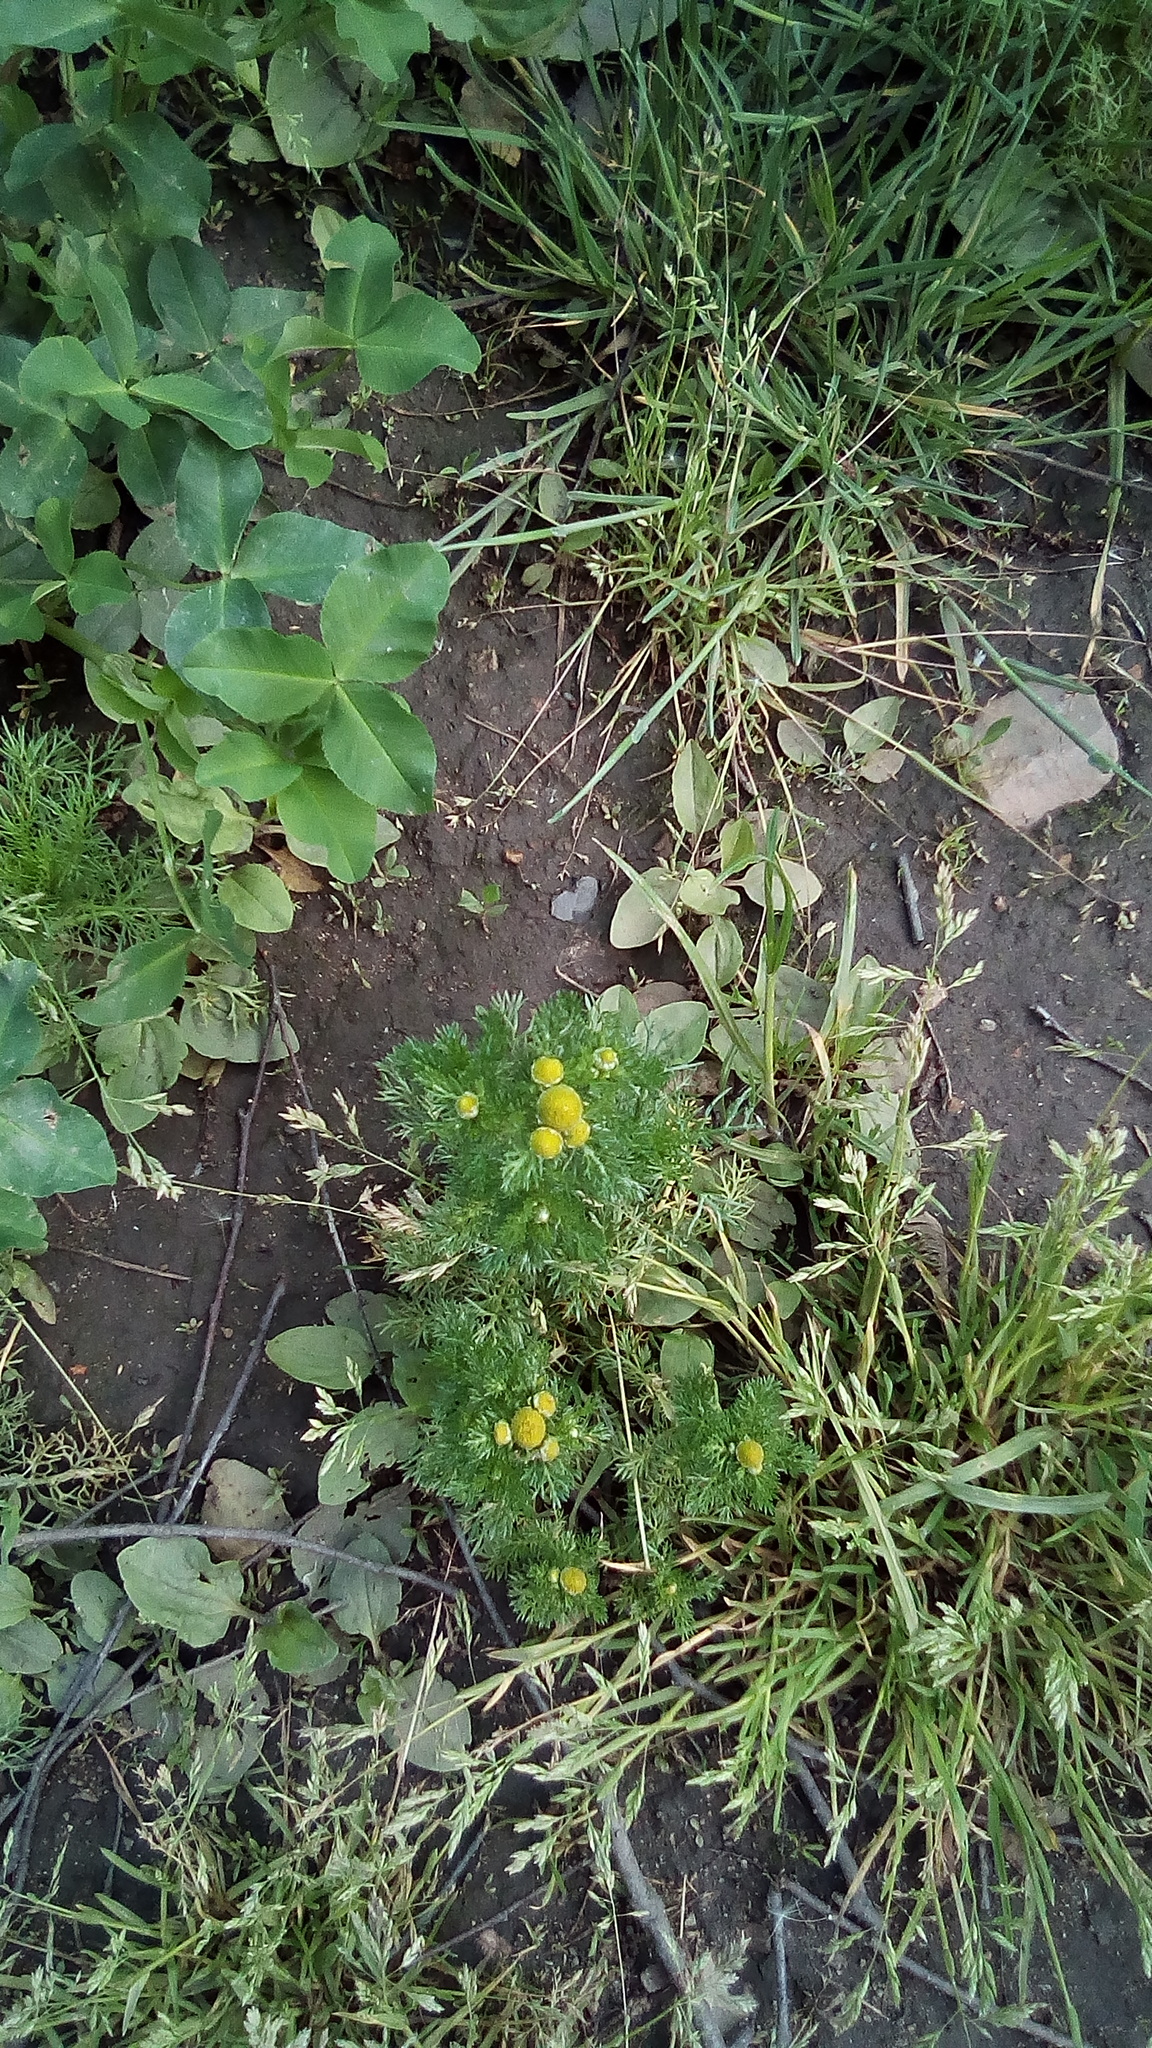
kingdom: Plantae
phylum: Tracheophyta
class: Magnoliopsida
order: Asterales
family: Asteraceae
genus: Matricaria
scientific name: Matricaria discoidea
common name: Disc mayweed
